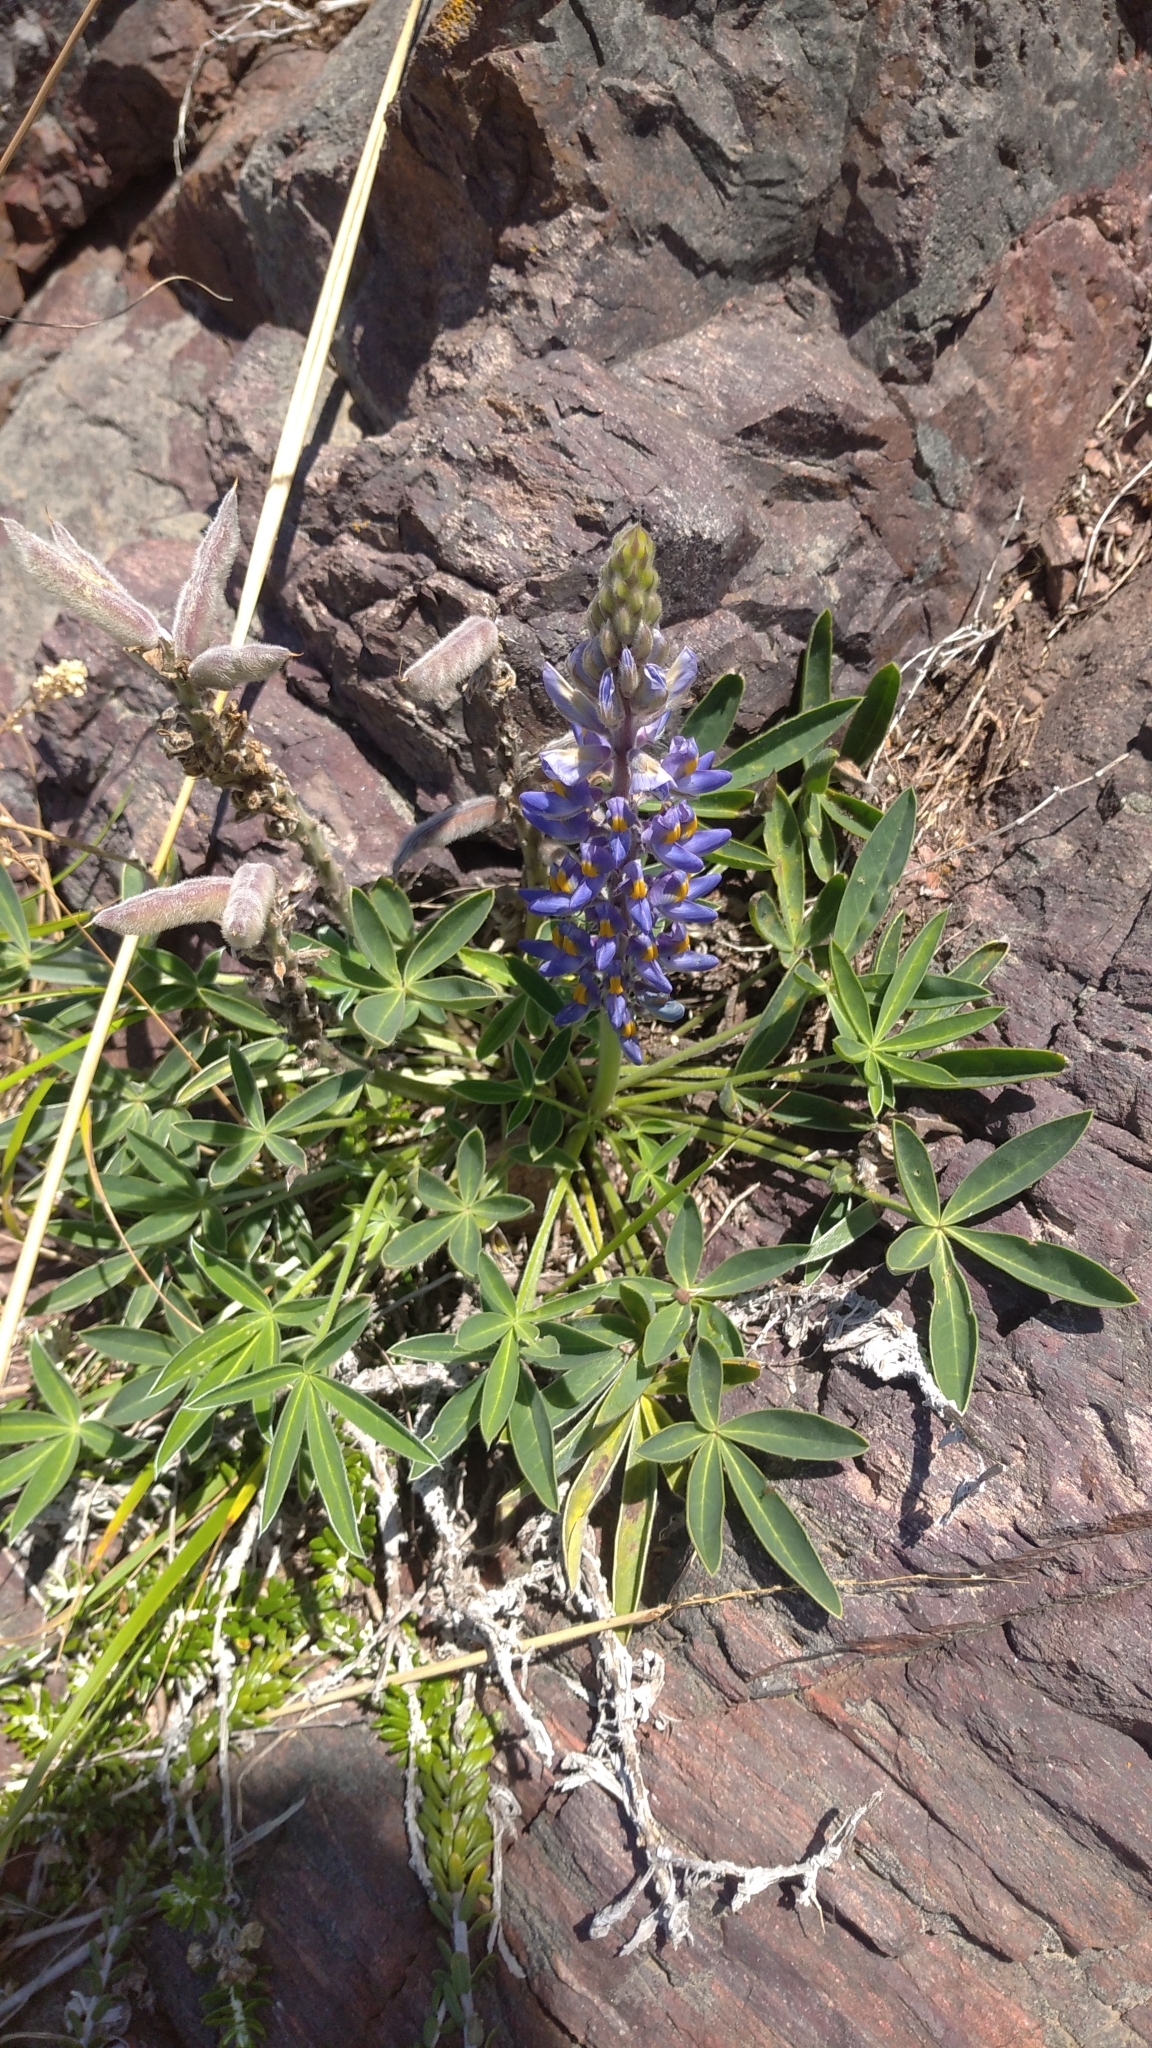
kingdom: Plantae
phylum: Tracheophyta
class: Magnoliopsida
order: Fabales
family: Fabaceae
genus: Lupinus
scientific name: Lupinus multiflorus
